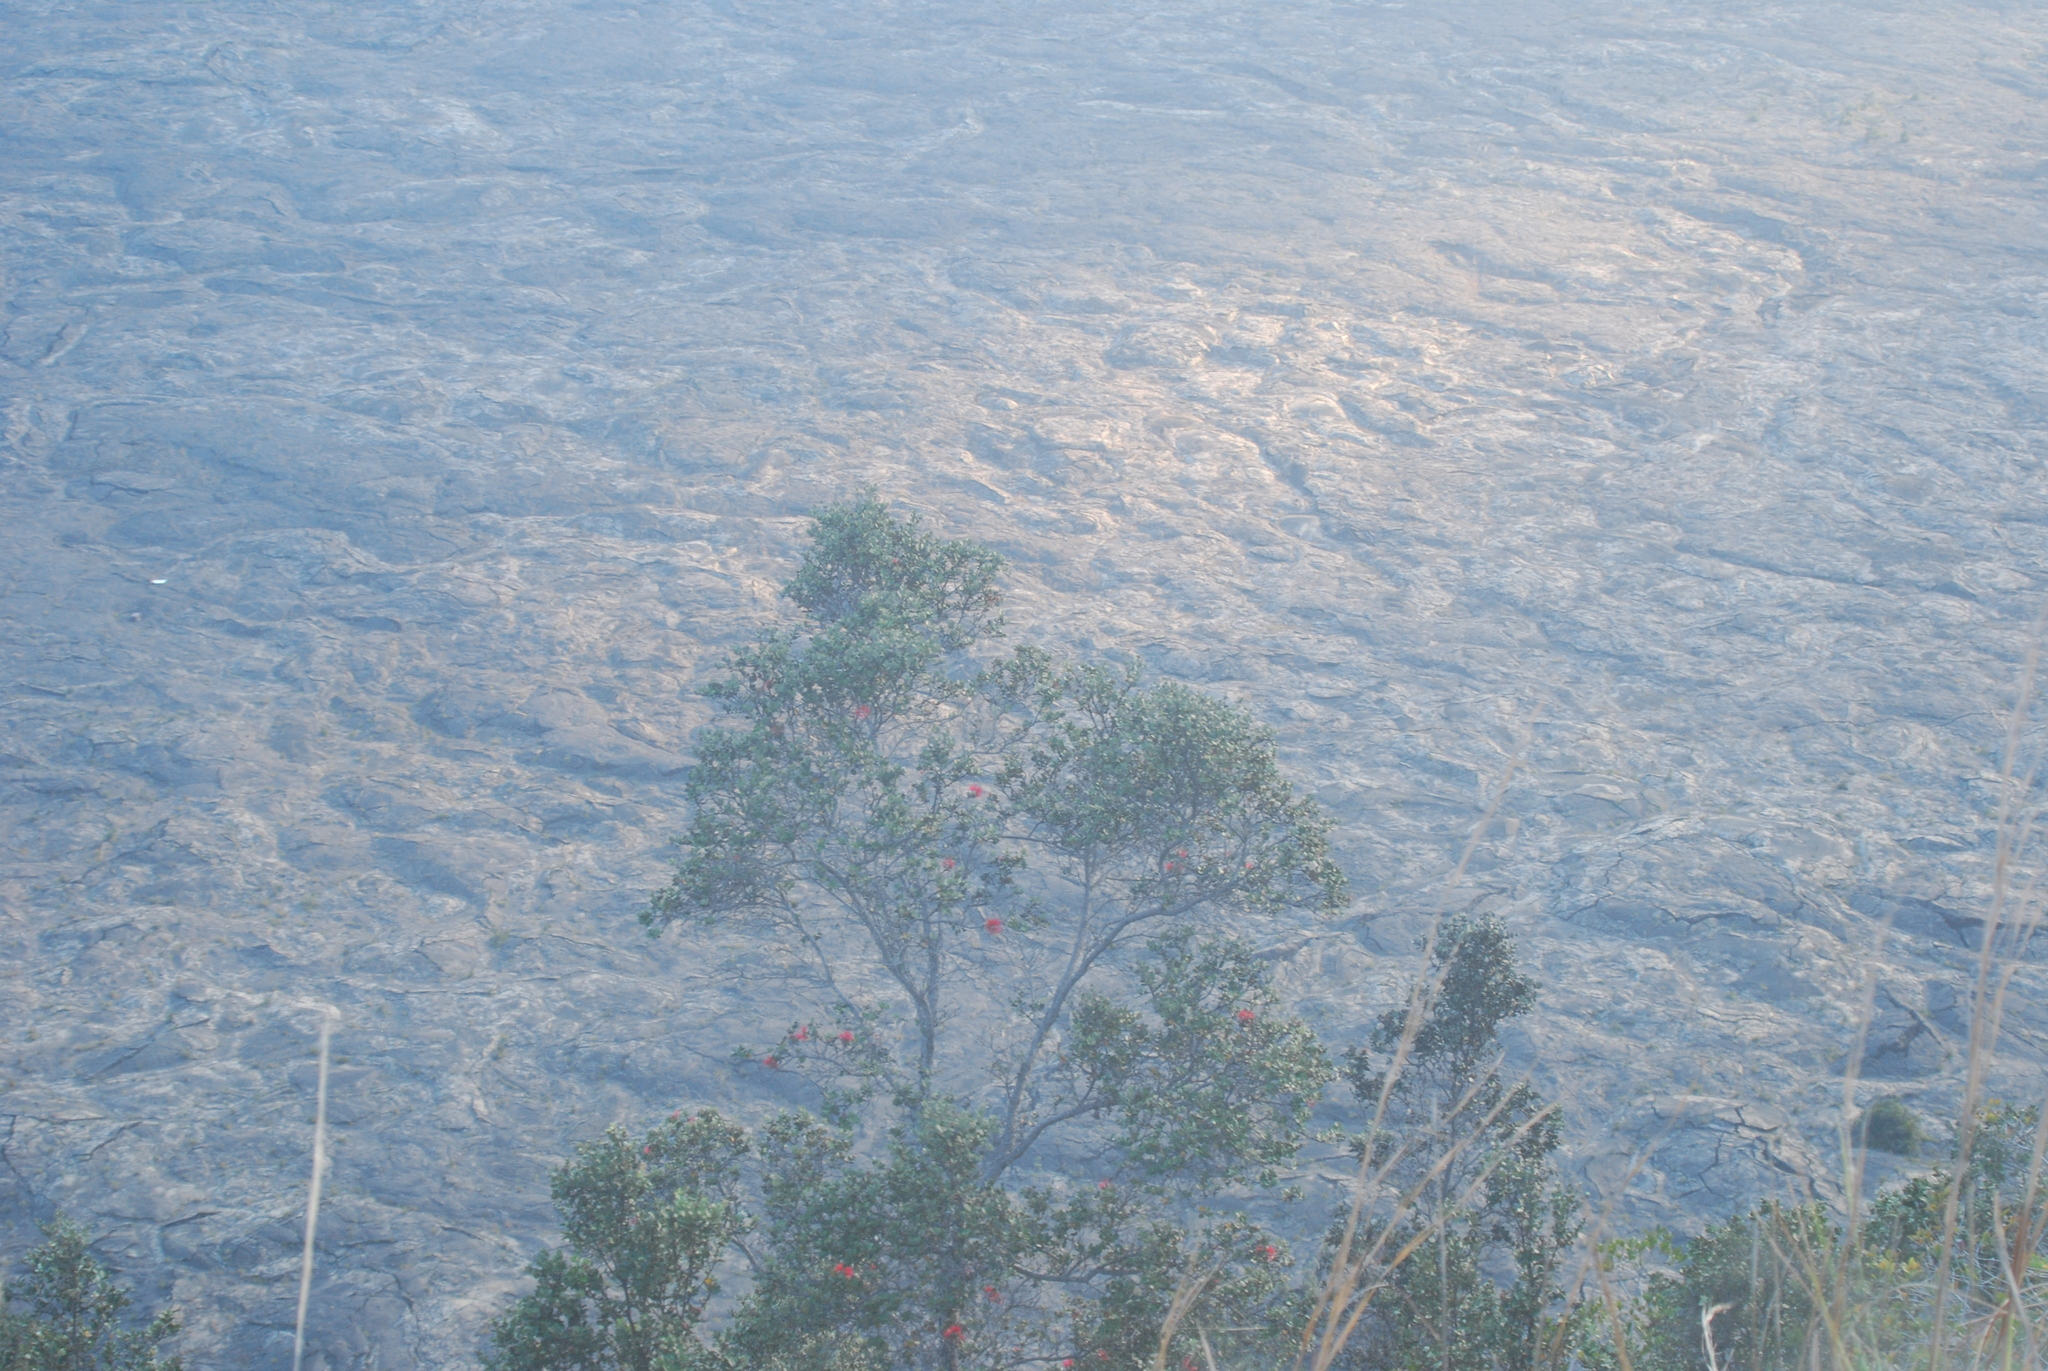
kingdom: Plantae
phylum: Tracheophyta
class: Magnoliopsida
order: Myrtales
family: Myrtaceae
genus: Metrosideros
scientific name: Metrosideros polymorpha
